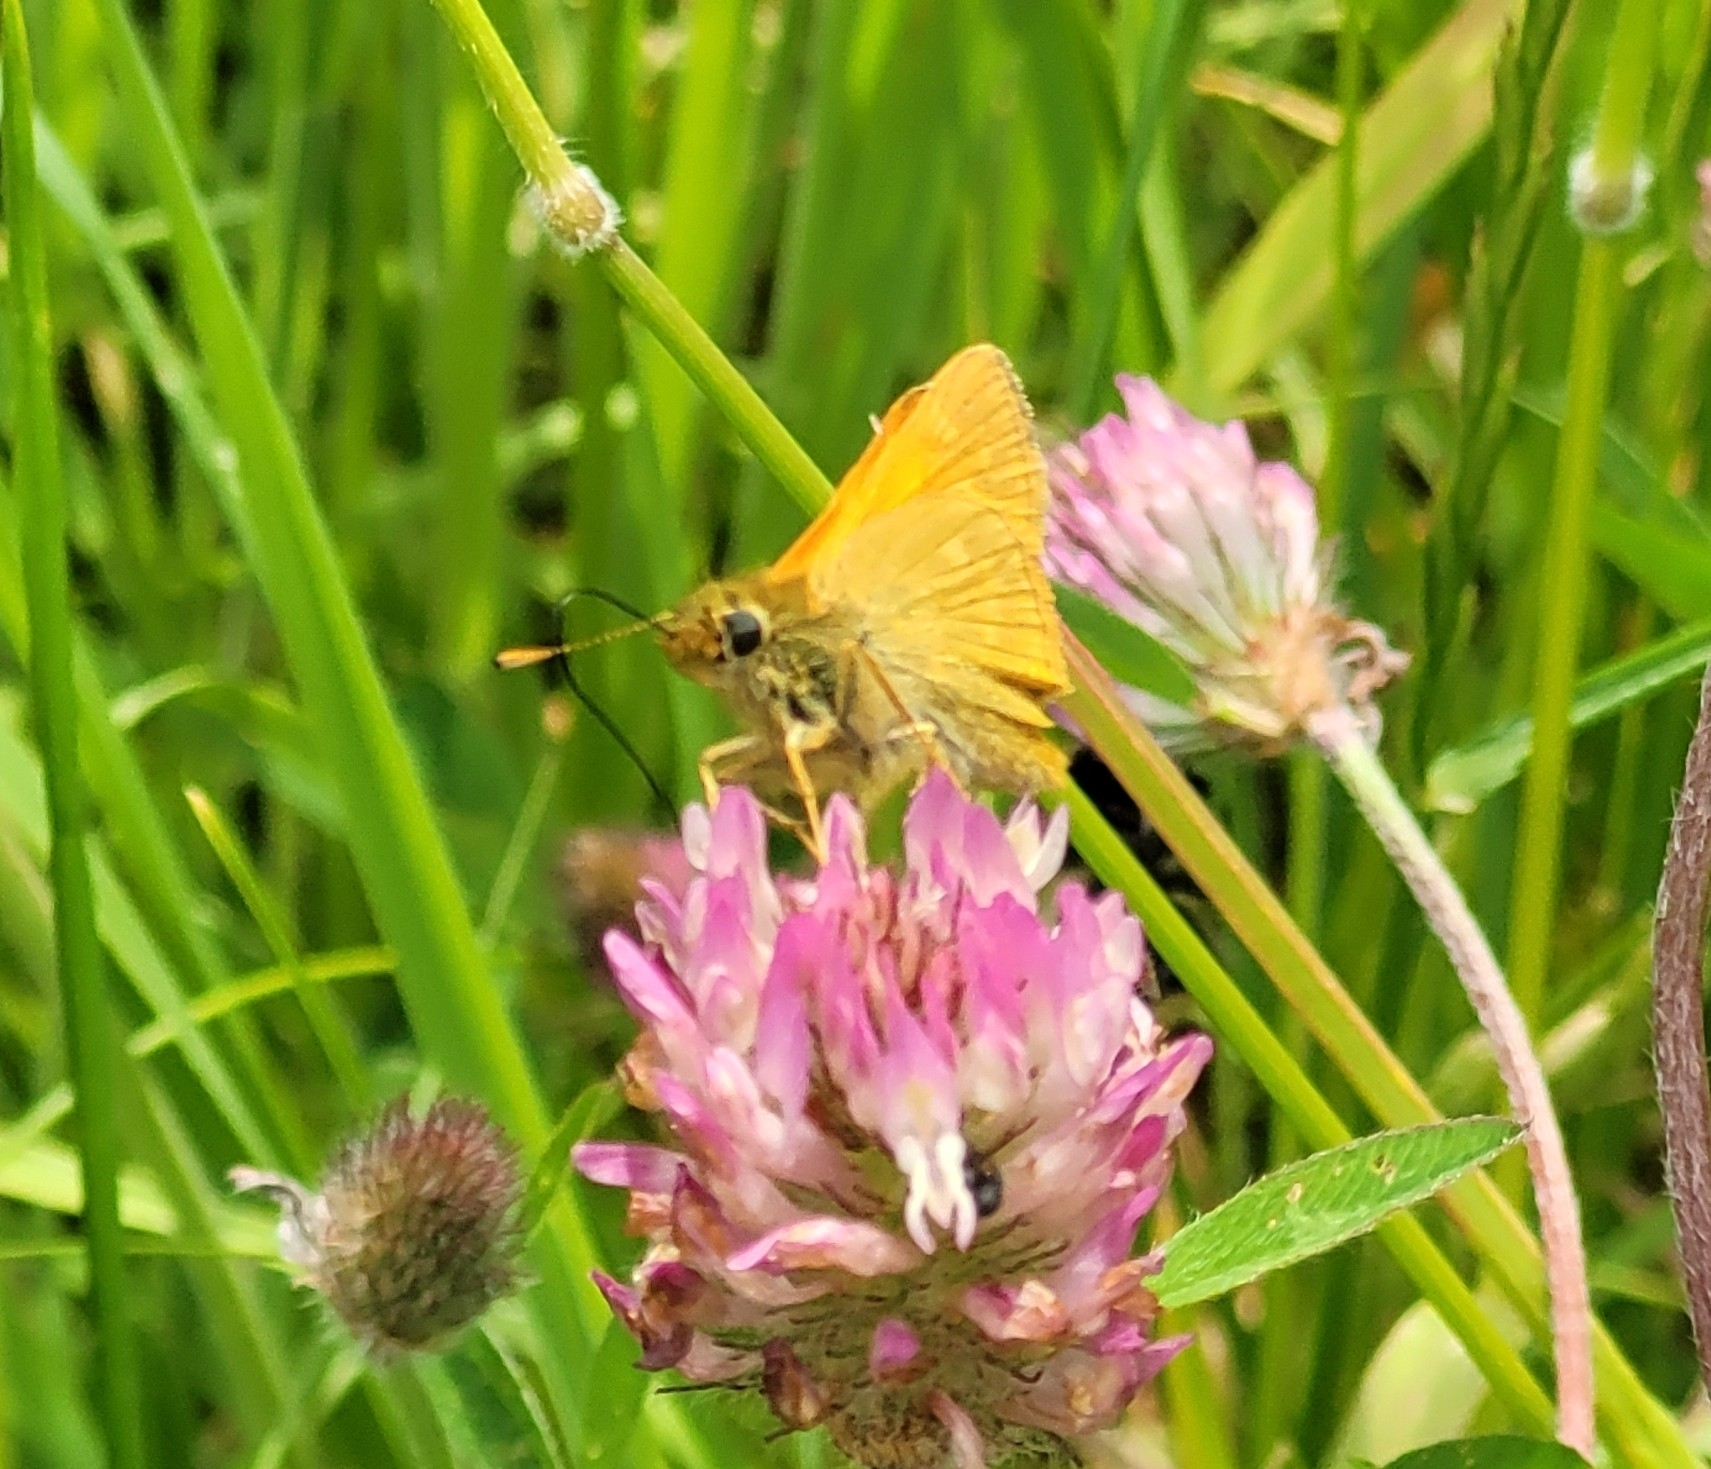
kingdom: Animalia
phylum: Arthropoda
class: Insecta
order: Lepidoptera
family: Hesperiidae
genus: Ochlodes
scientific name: Ochlodes venata
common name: Large skipper
